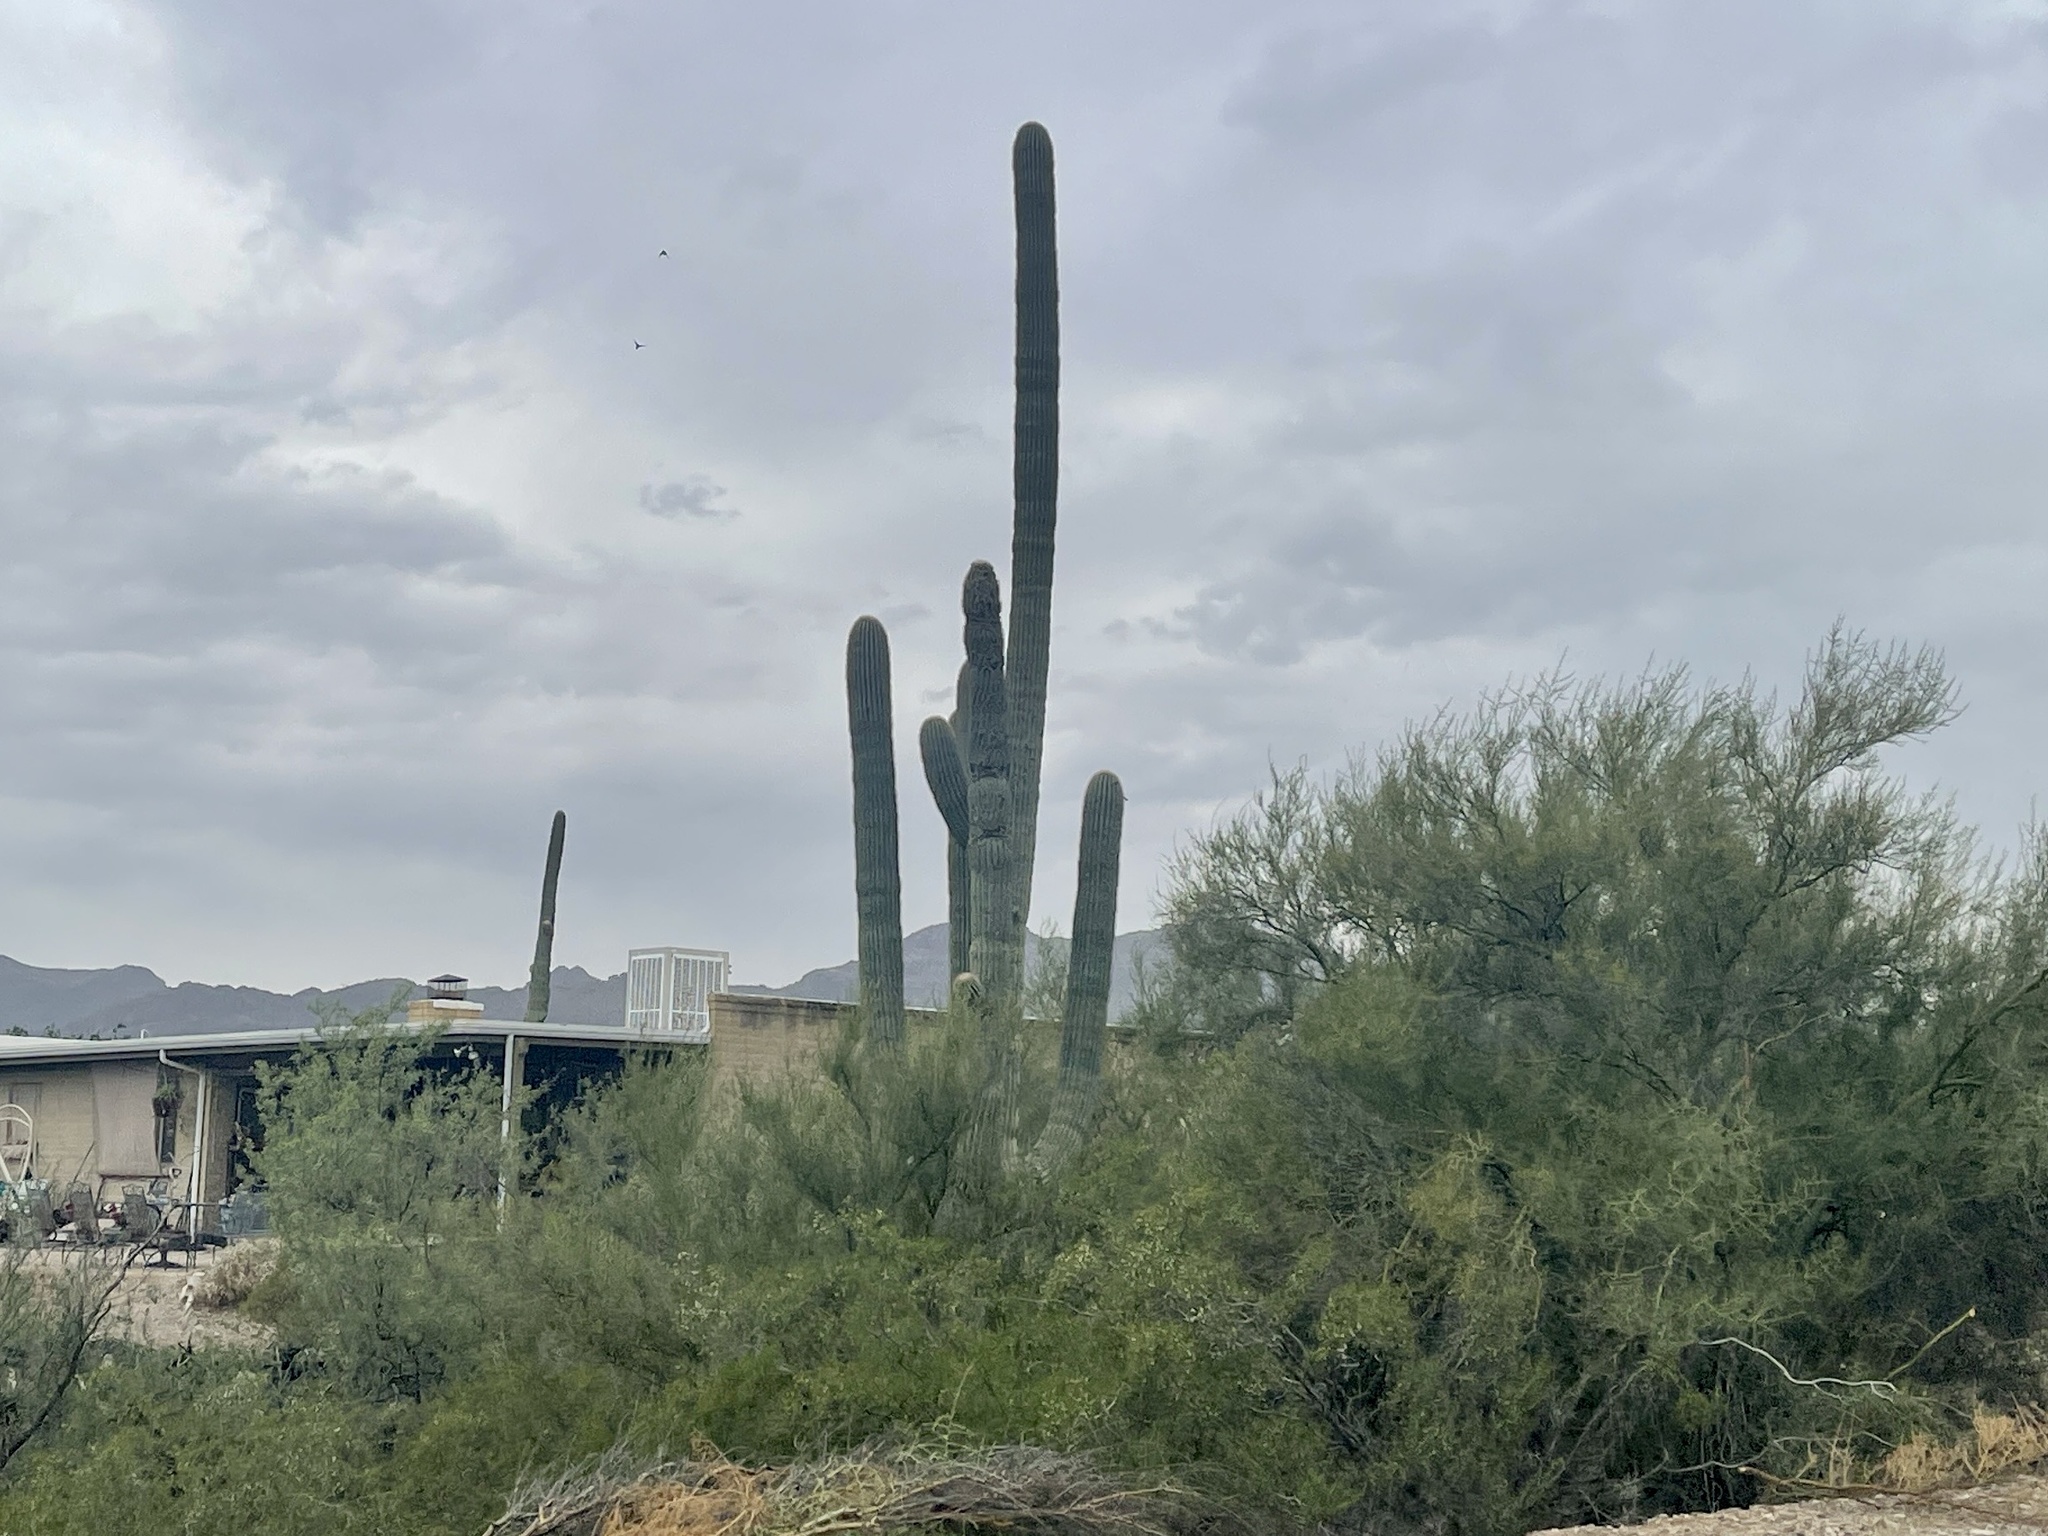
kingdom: Plantae
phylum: Tracheophyta
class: Magnoliopsida
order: Caryophyllales
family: Cactaceae
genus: Carnegiea
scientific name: Carnegiea gigantea
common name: Saguaro
